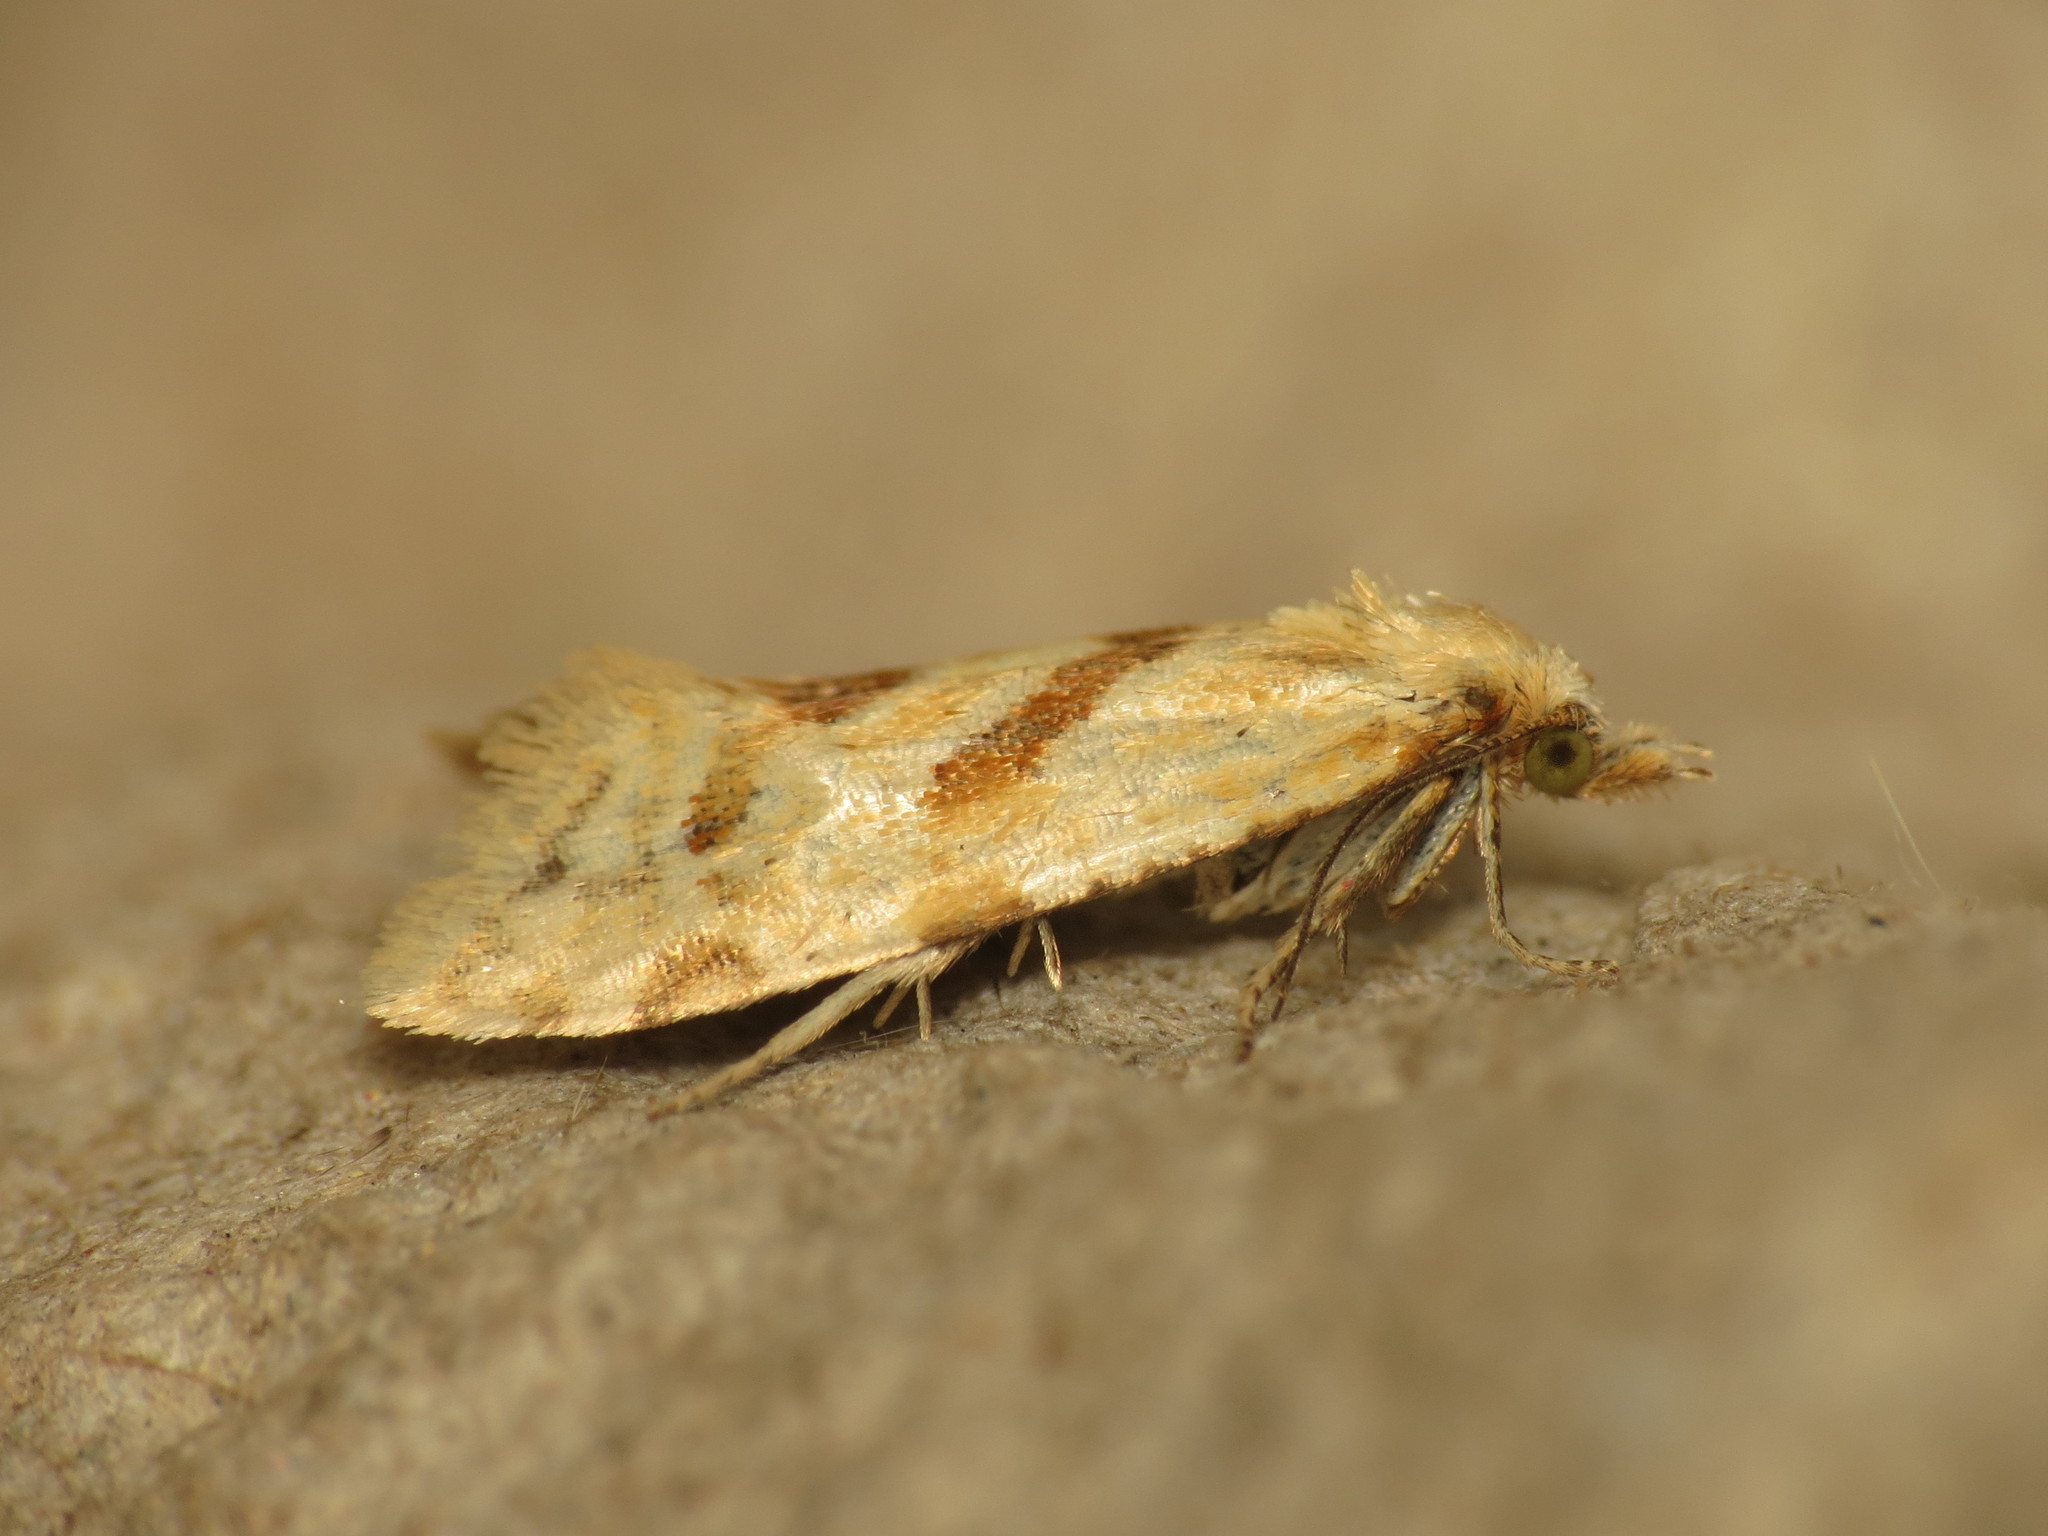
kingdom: Animalia
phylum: Arthropoda
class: Insecta
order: Lepidoptera
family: Tortricidae
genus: Aethes
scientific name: Aethes smeathmanniana
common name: Yarrow conch
